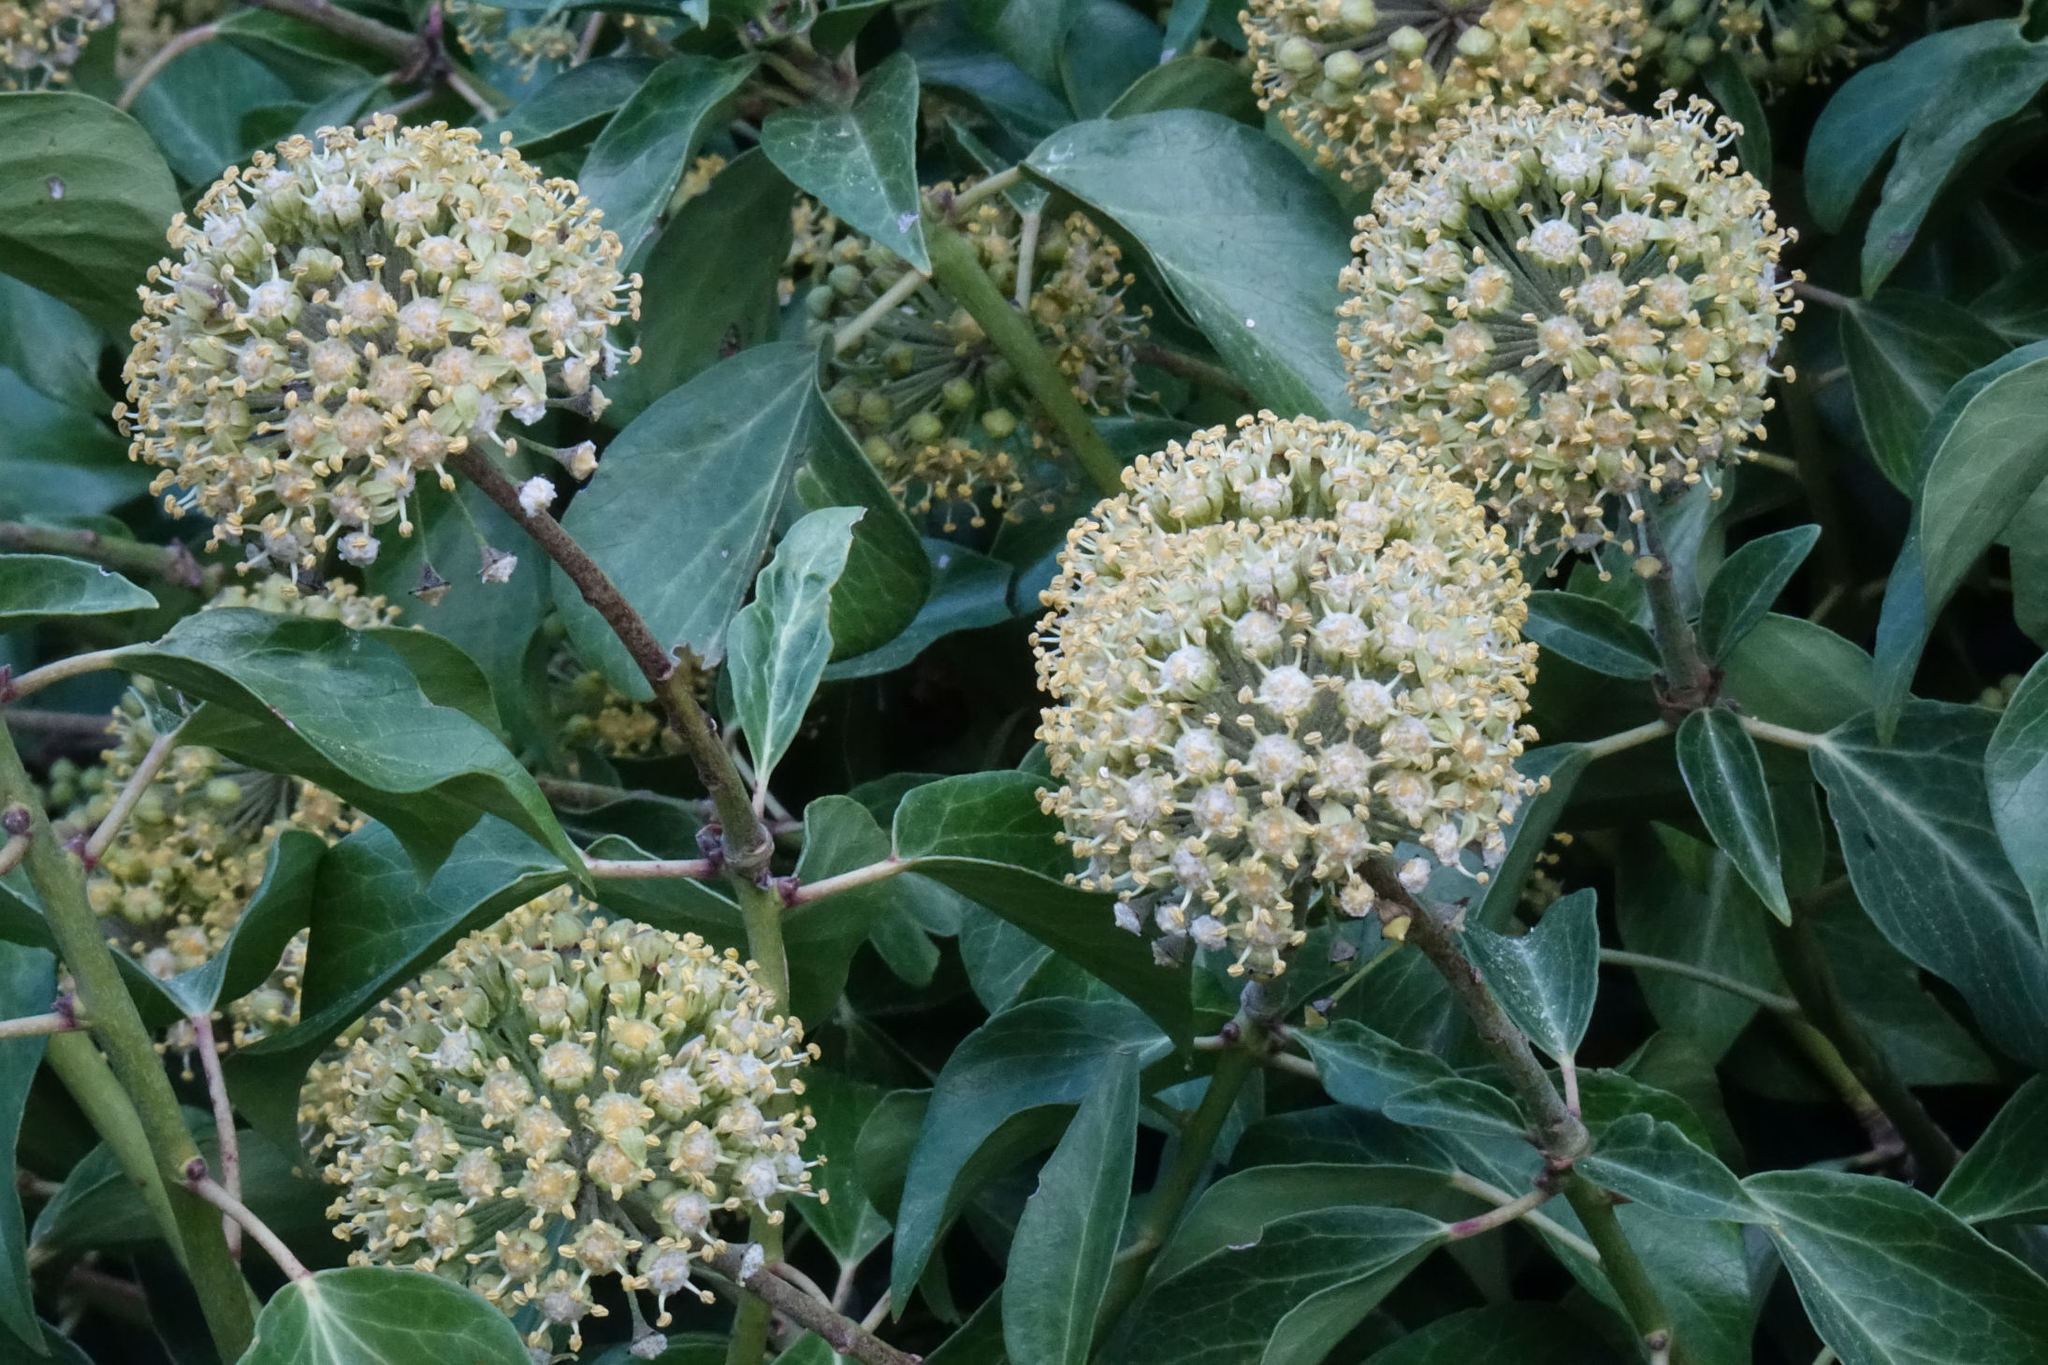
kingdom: Plantae
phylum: Tracheophyta
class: Magnoliopsida
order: Apiales
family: Araliaceae
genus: Hedera
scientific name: Hedera helix
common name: Ivy
